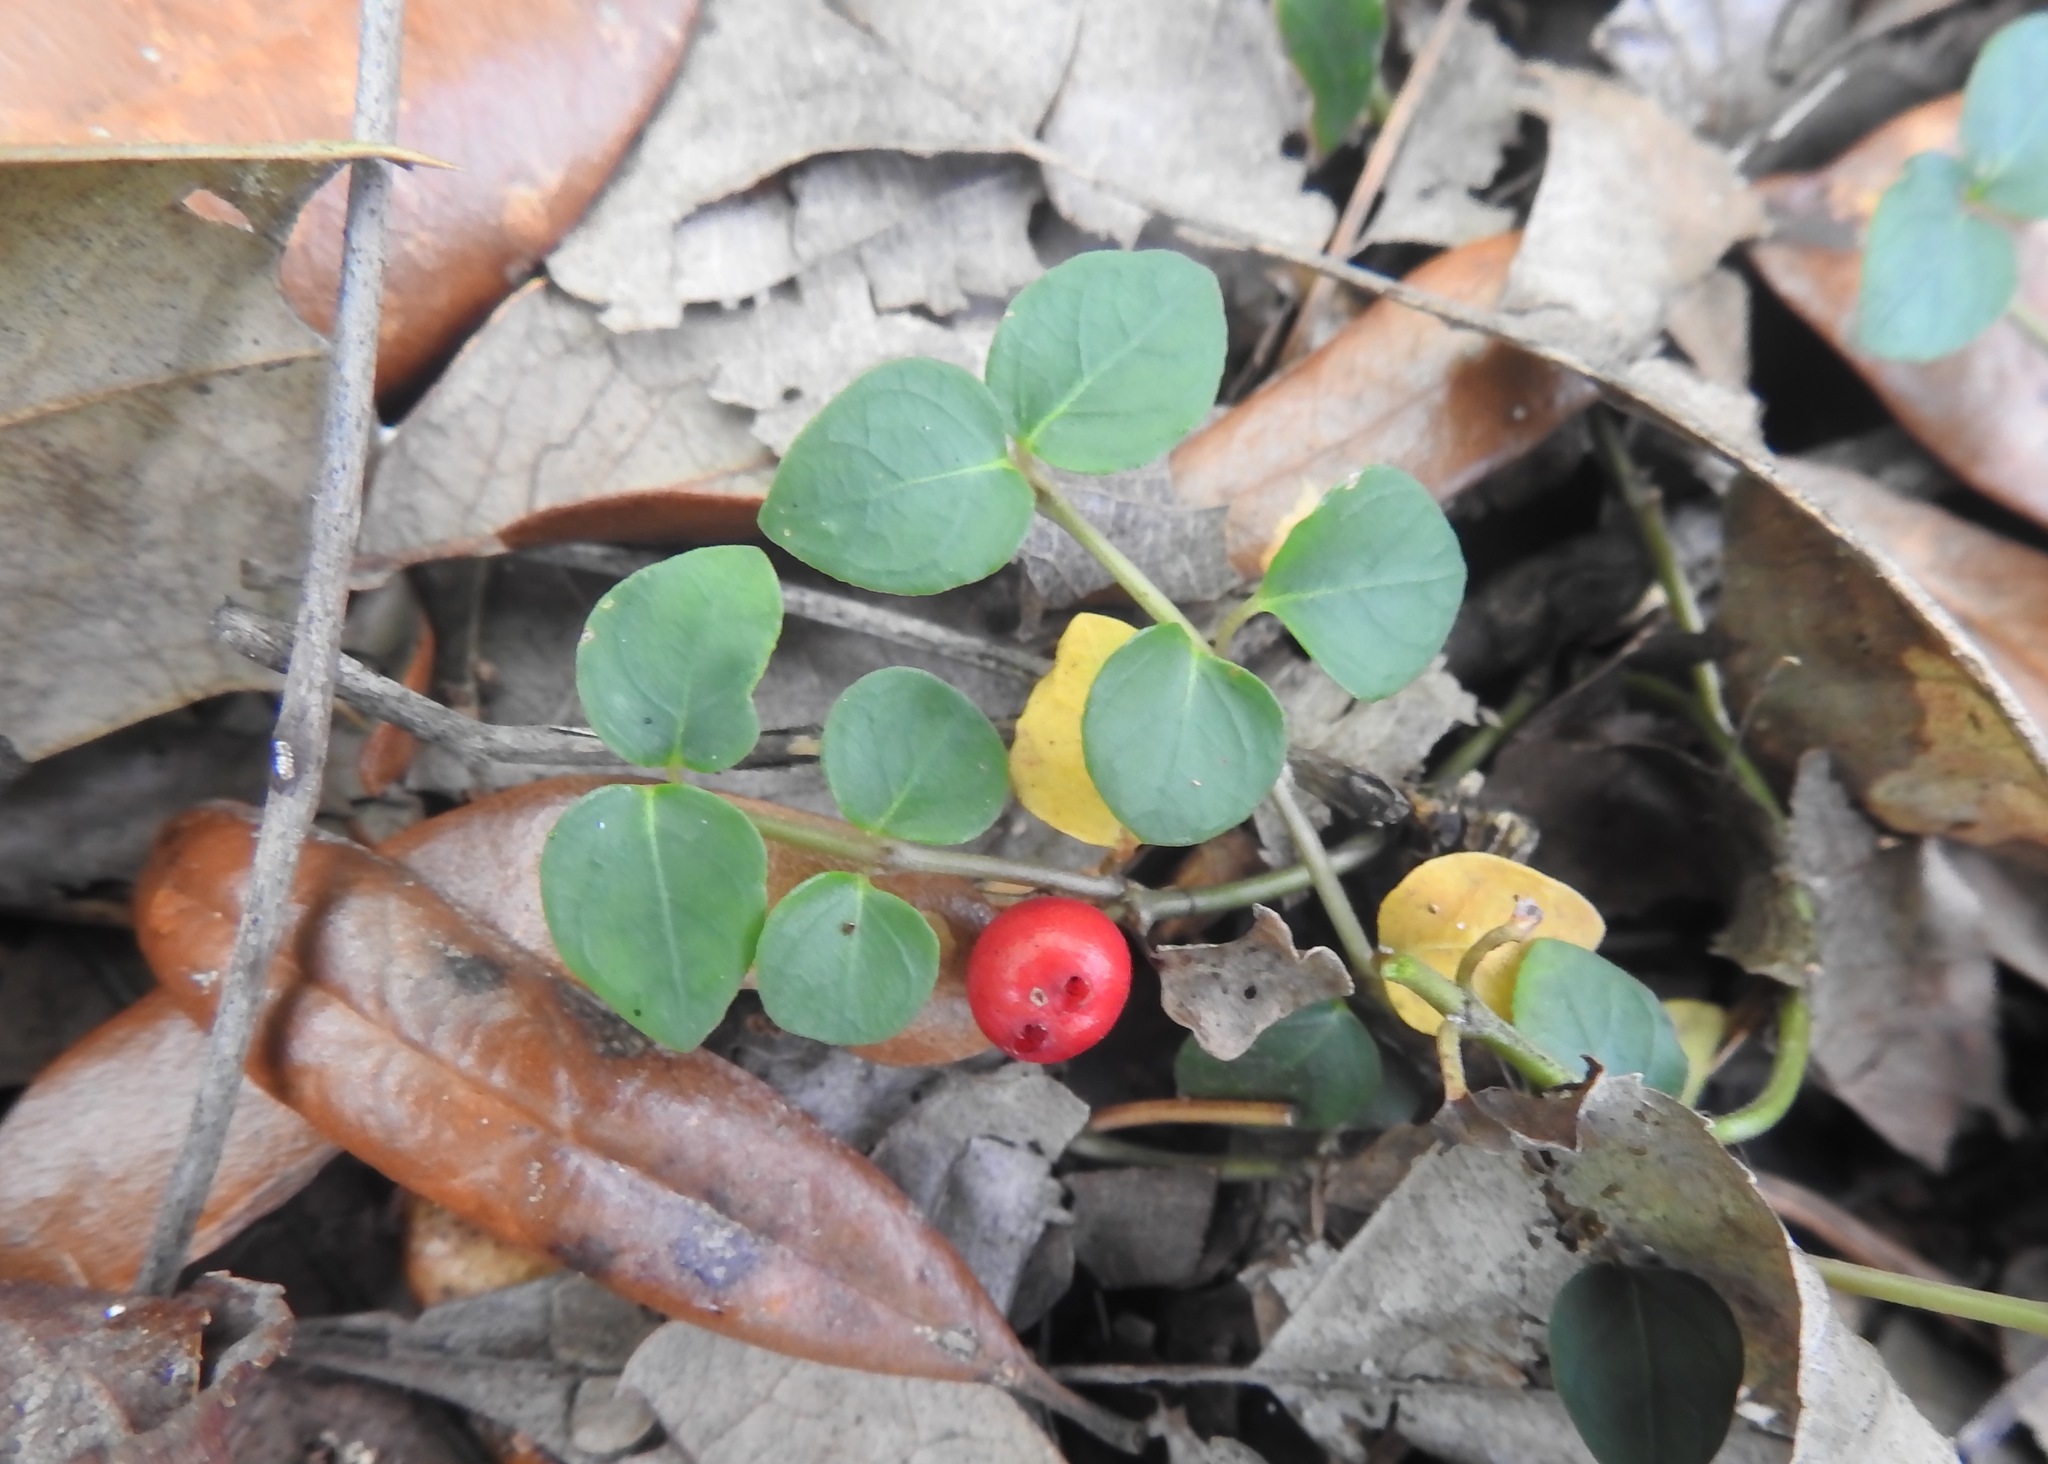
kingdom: Plantae
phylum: Tracheophyta
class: Magnoliopsida
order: Gentianales
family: Rubiaceae
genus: Mitchella
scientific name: Mitchella repens
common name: Partridge-berry
